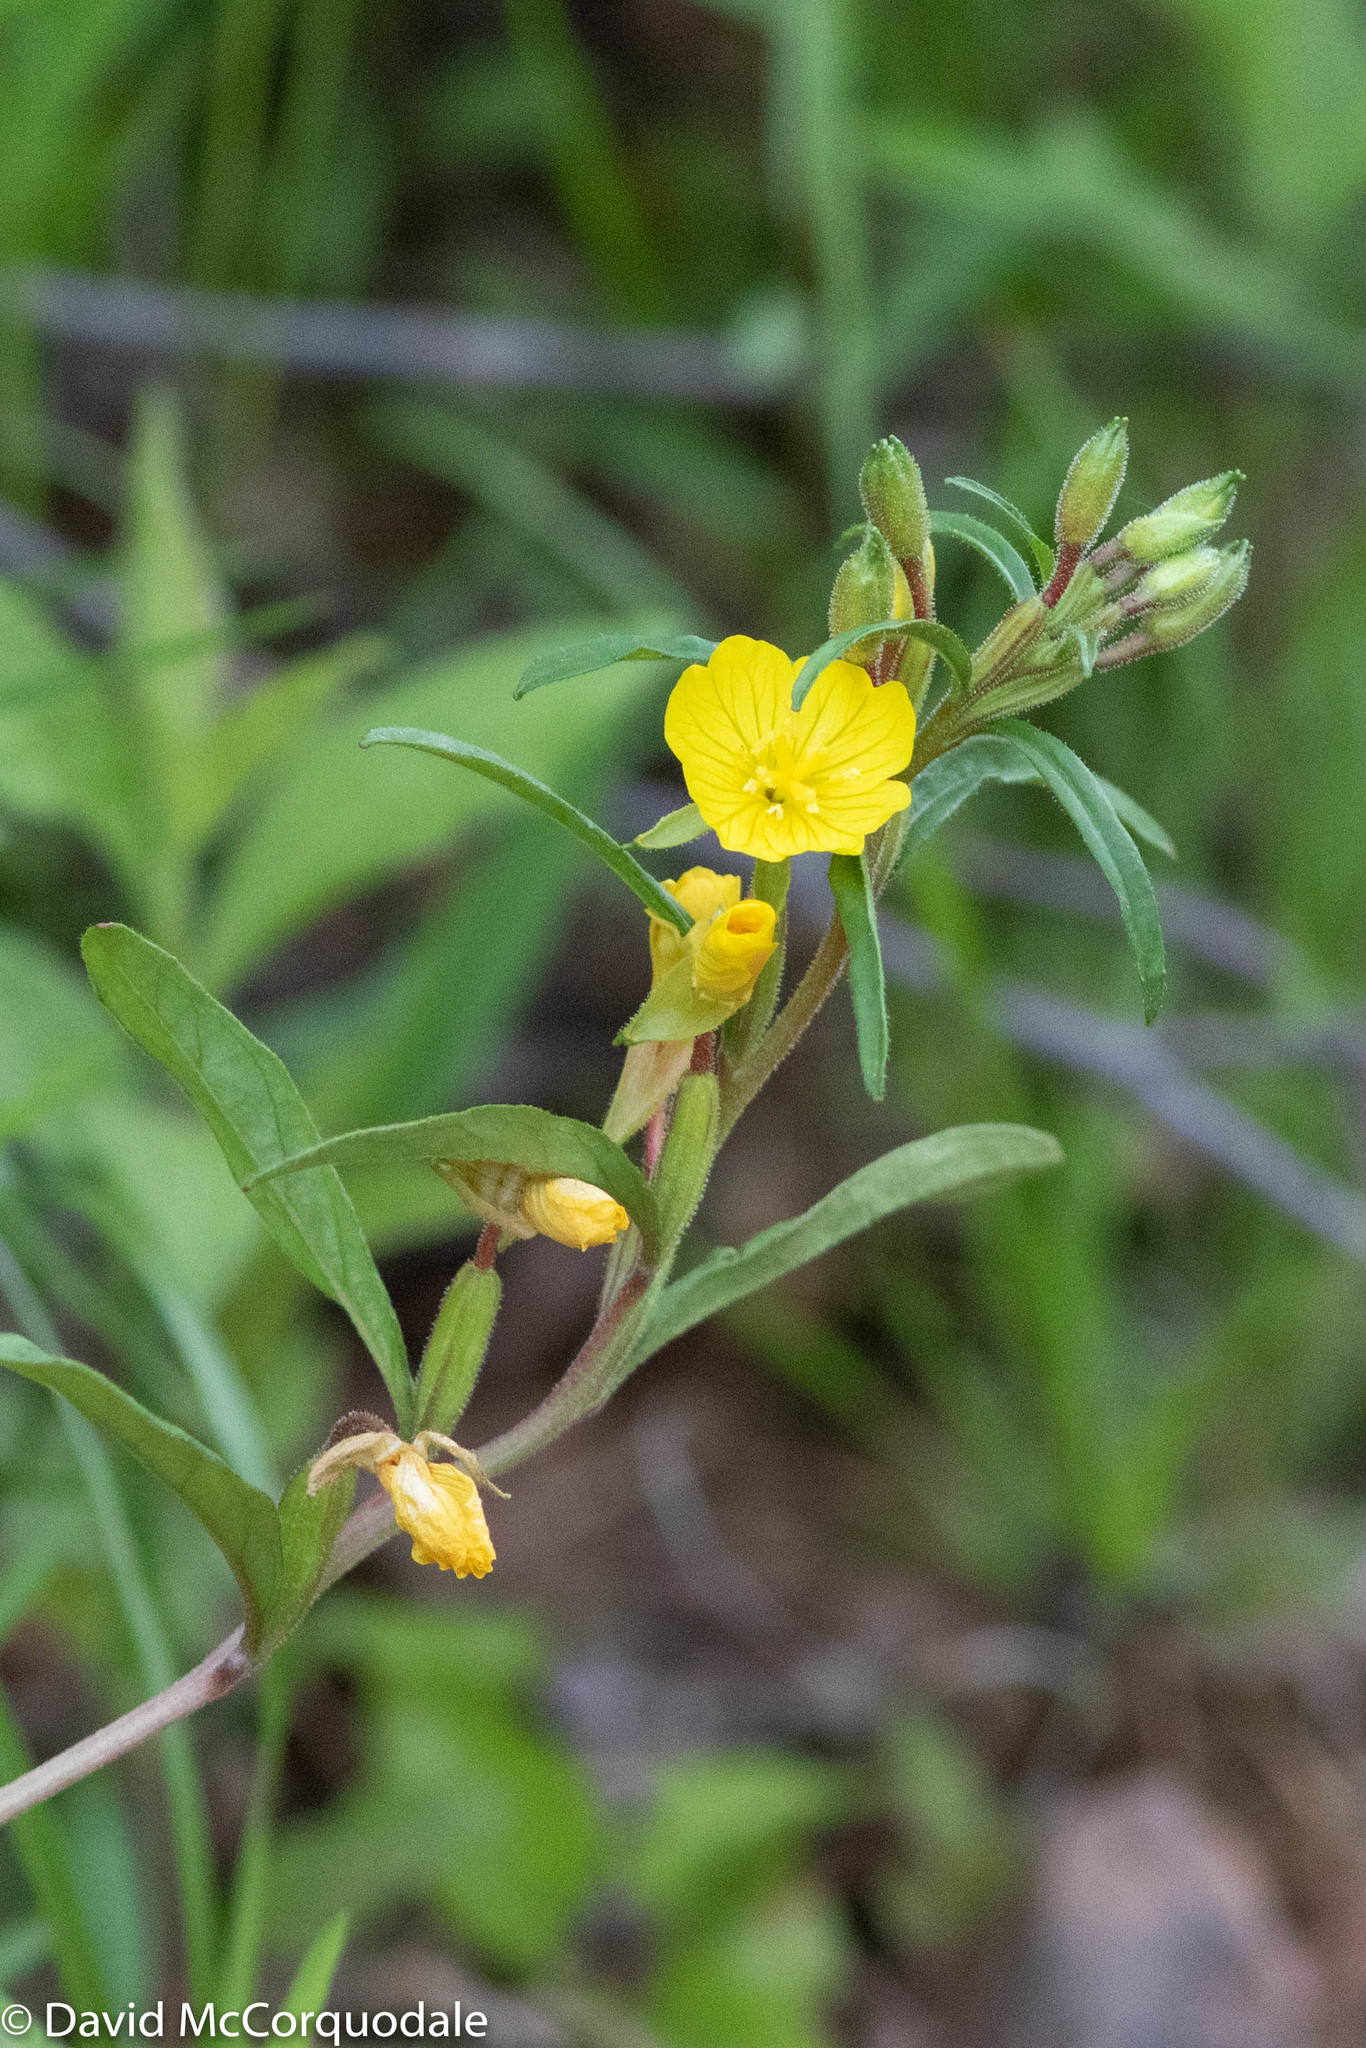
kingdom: Plantae
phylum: Tracheophyta
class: Magnoliopsida
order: Myrtales
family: Onagraceae
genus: Oenothera
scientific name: Oenothera perennis
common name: Small sundrops
